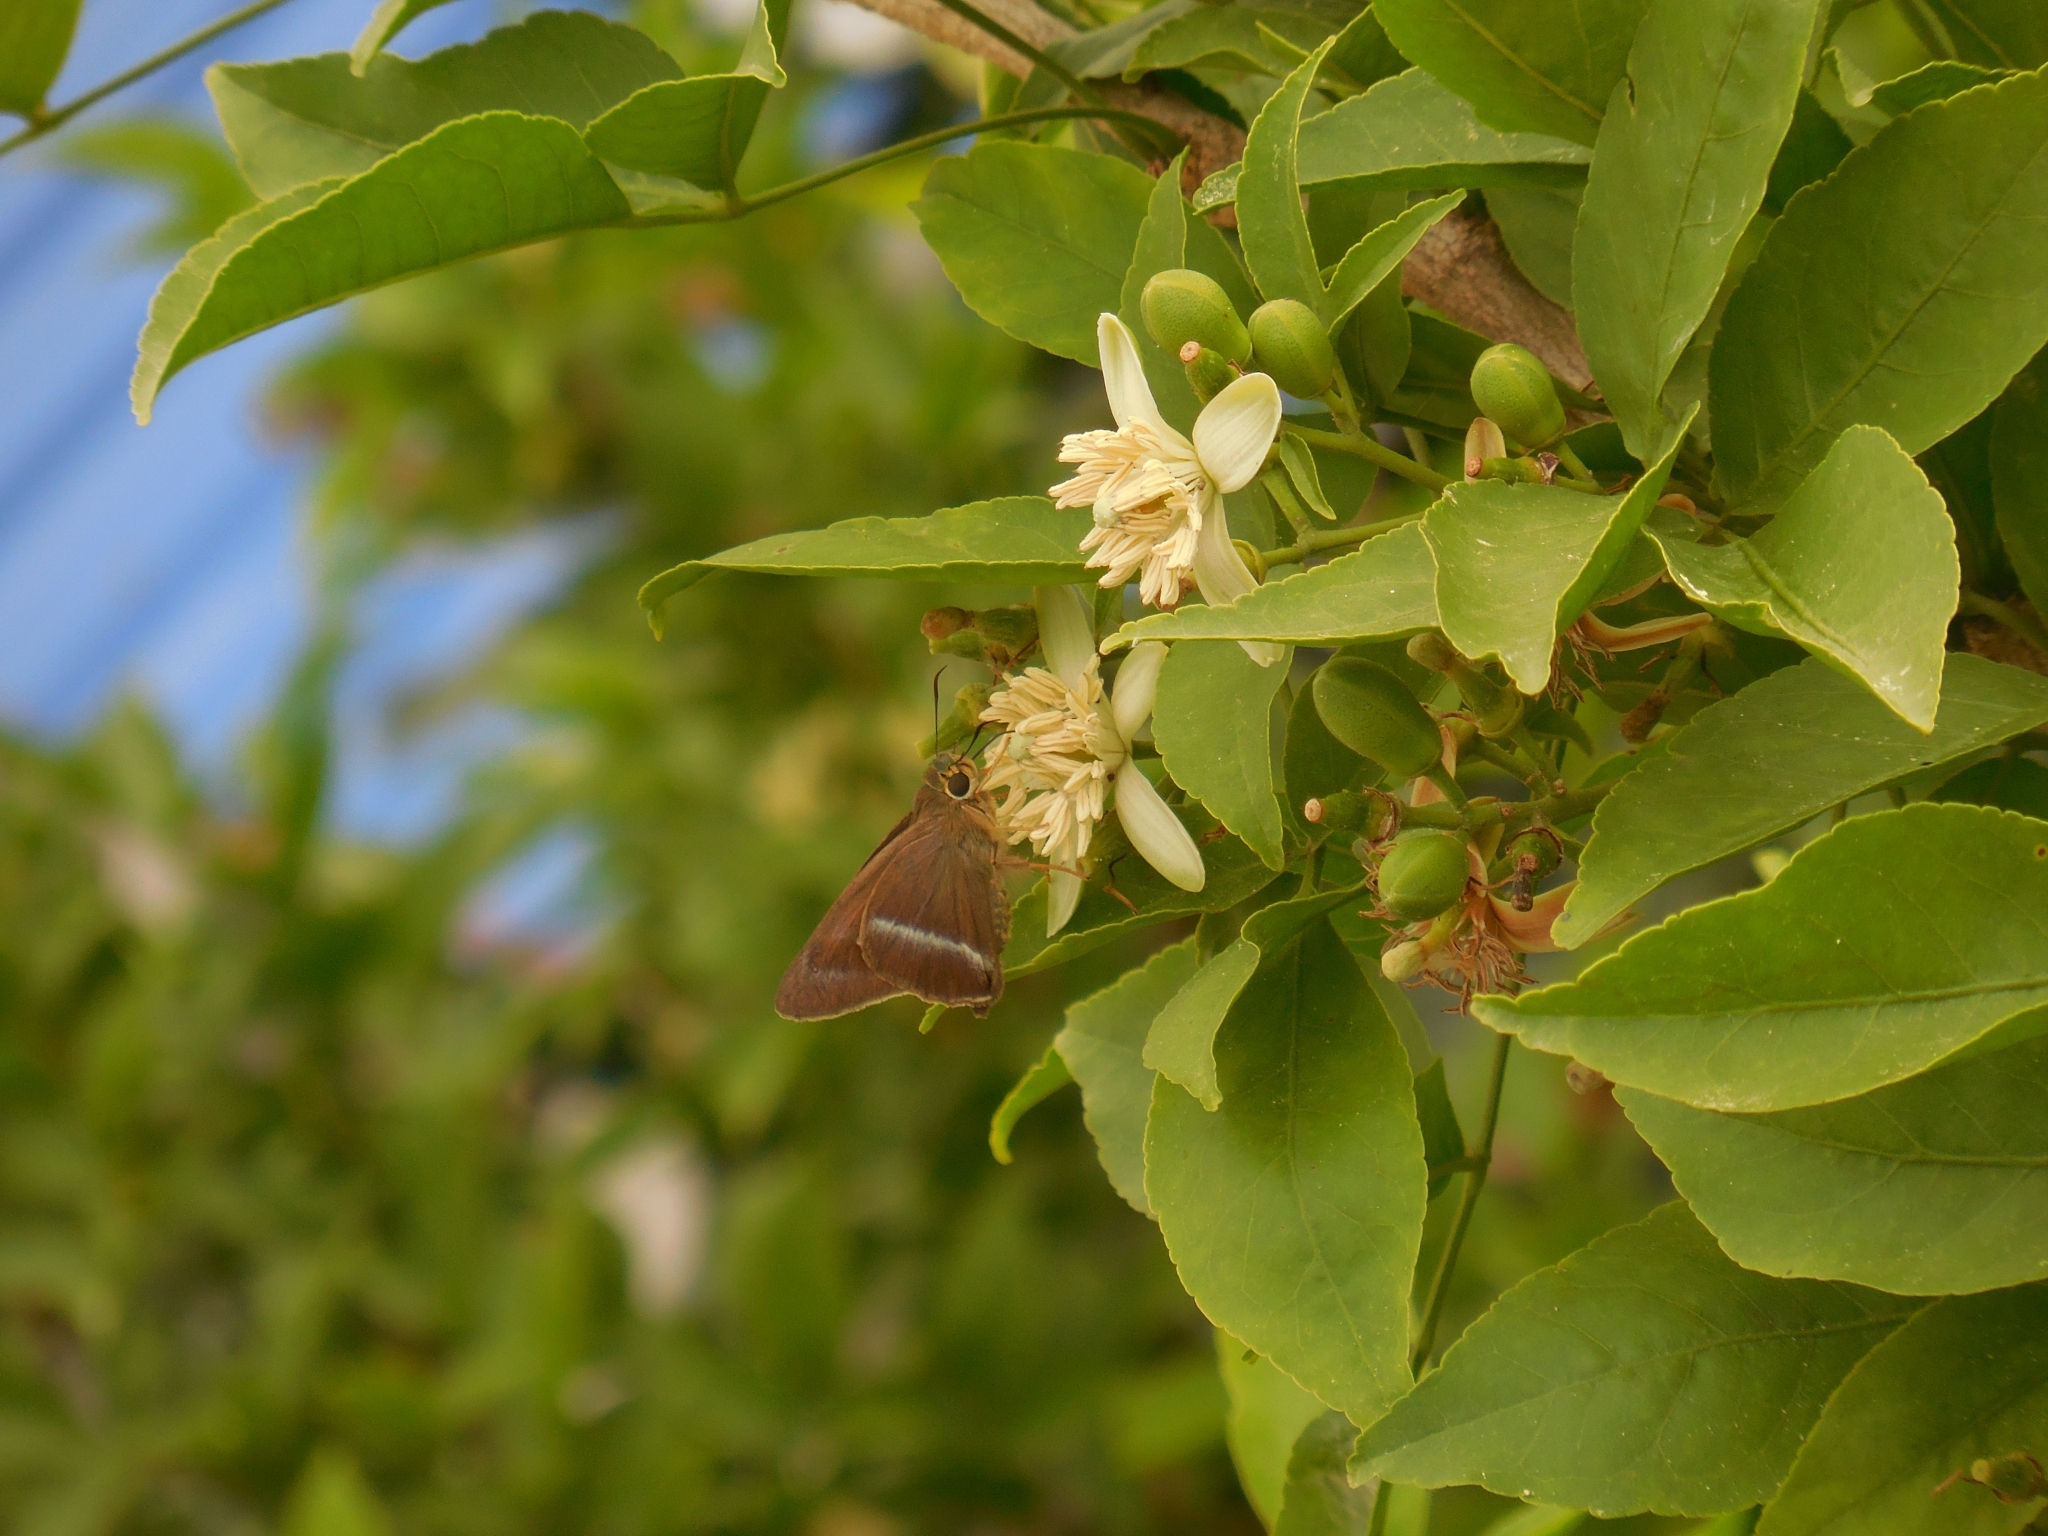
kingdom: Animalia
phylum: Arthropoda
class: Insecta
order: Lepidoptera
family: Hesperiidae
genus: Hasora
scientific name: Hasora chromus
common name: Common banded awl
